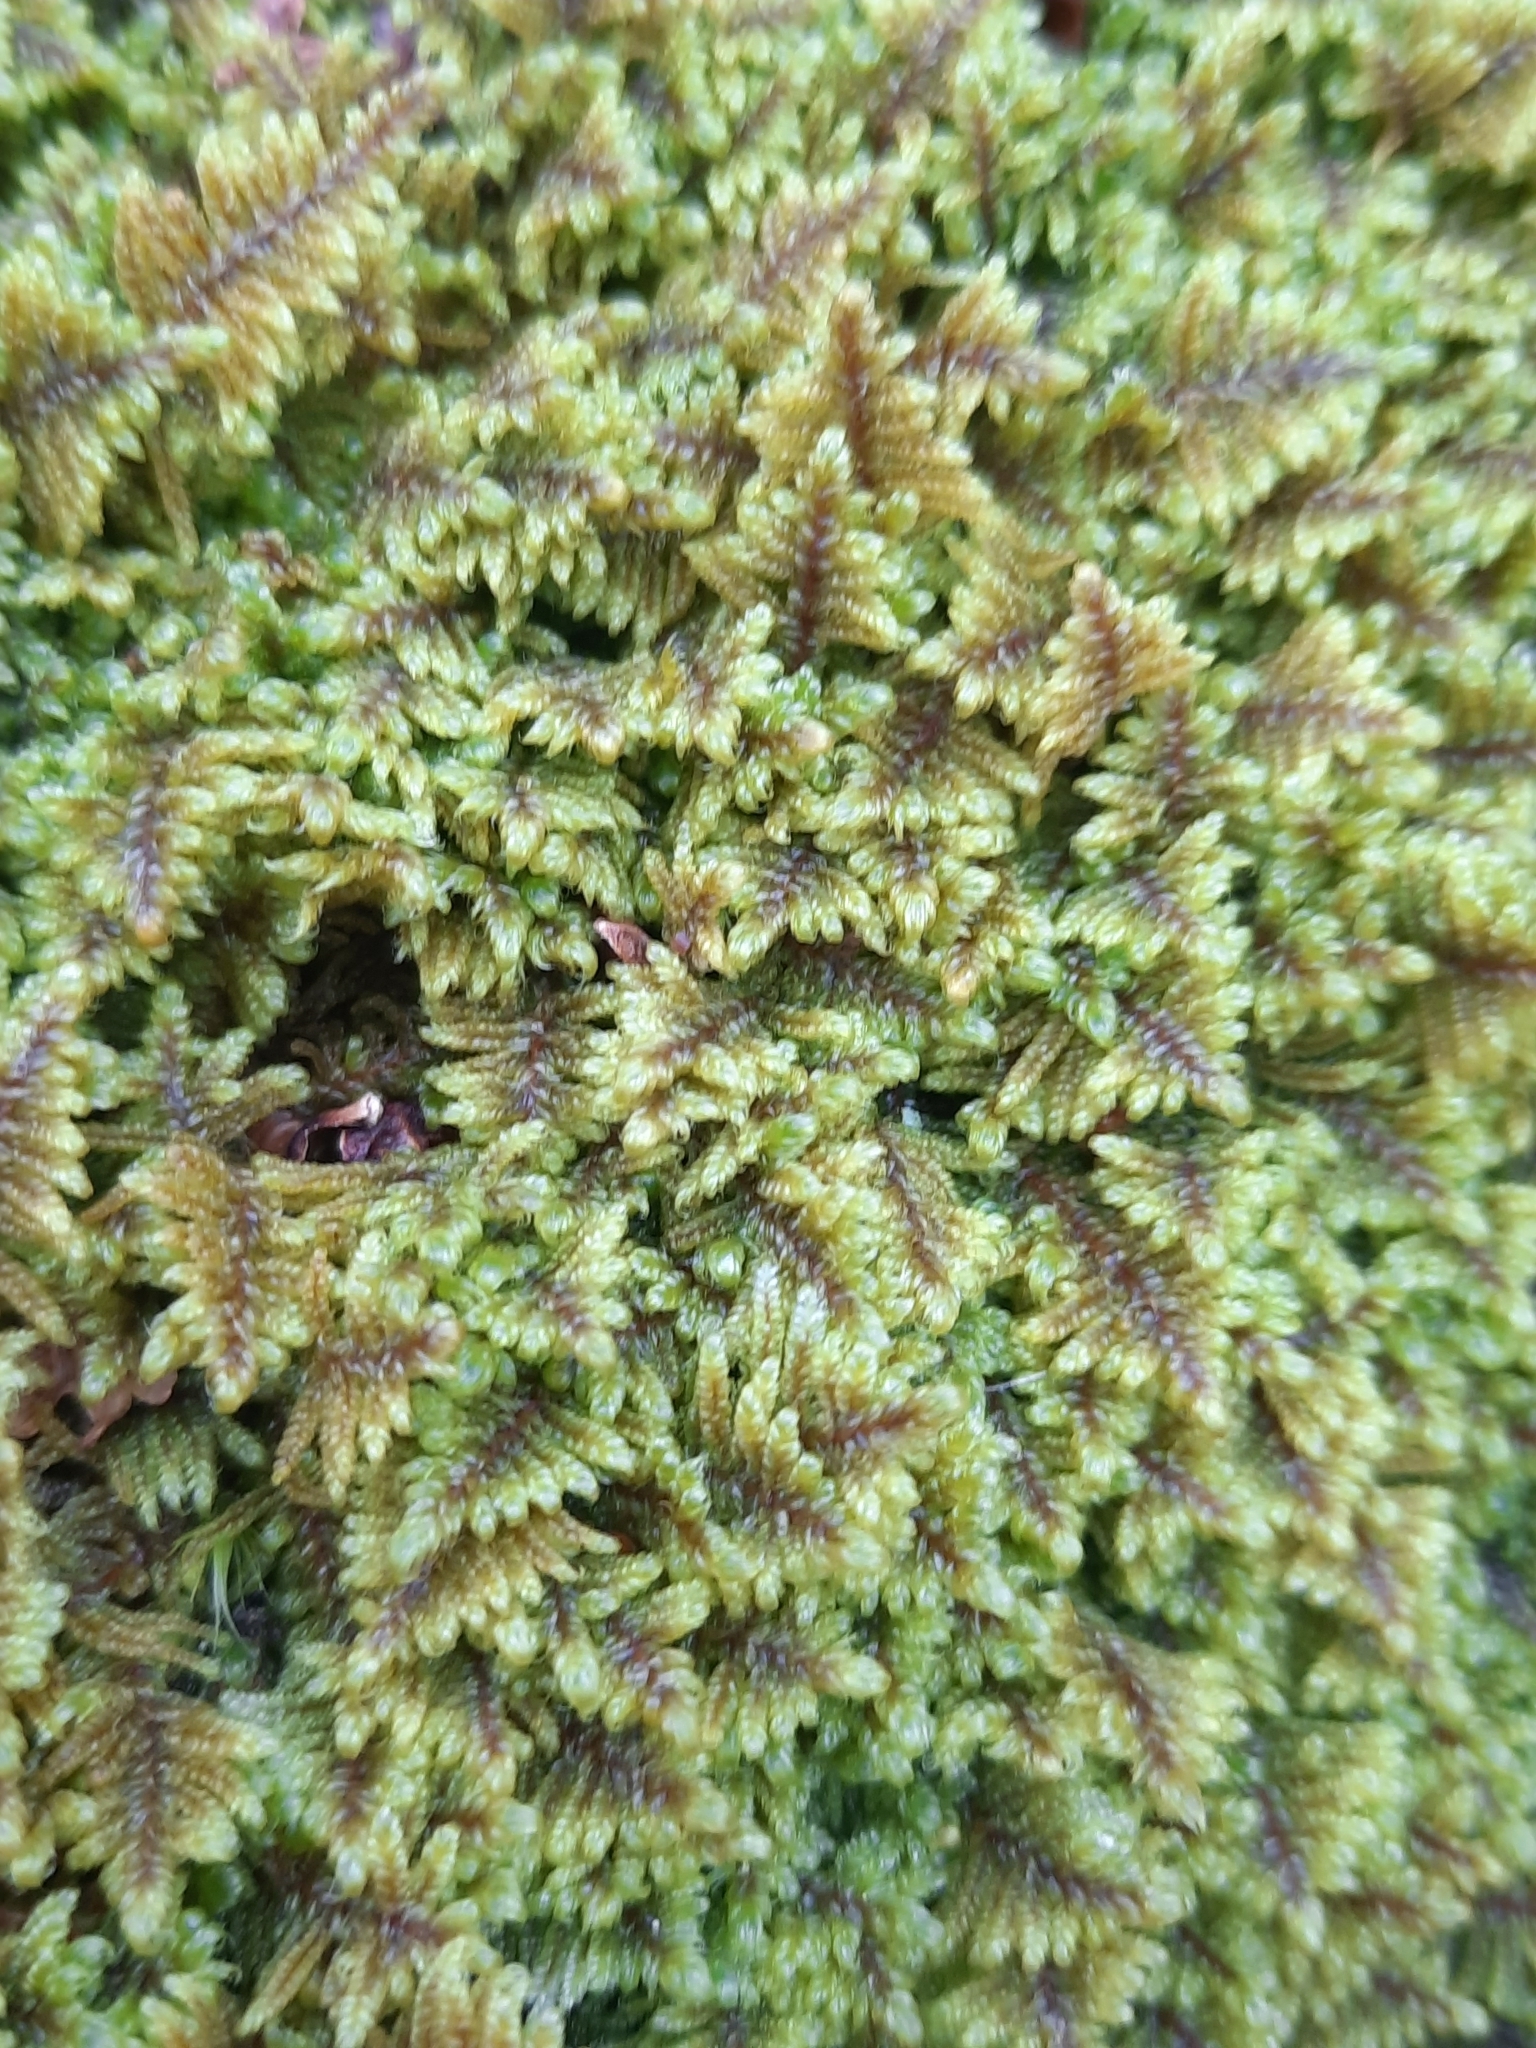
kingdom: Plantae
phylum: Bryophyta
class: Bryopsida
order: Hypnales
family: Callicladiaceae
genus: Callicladium
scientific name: Callicladium imponens
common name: Brocade moss
